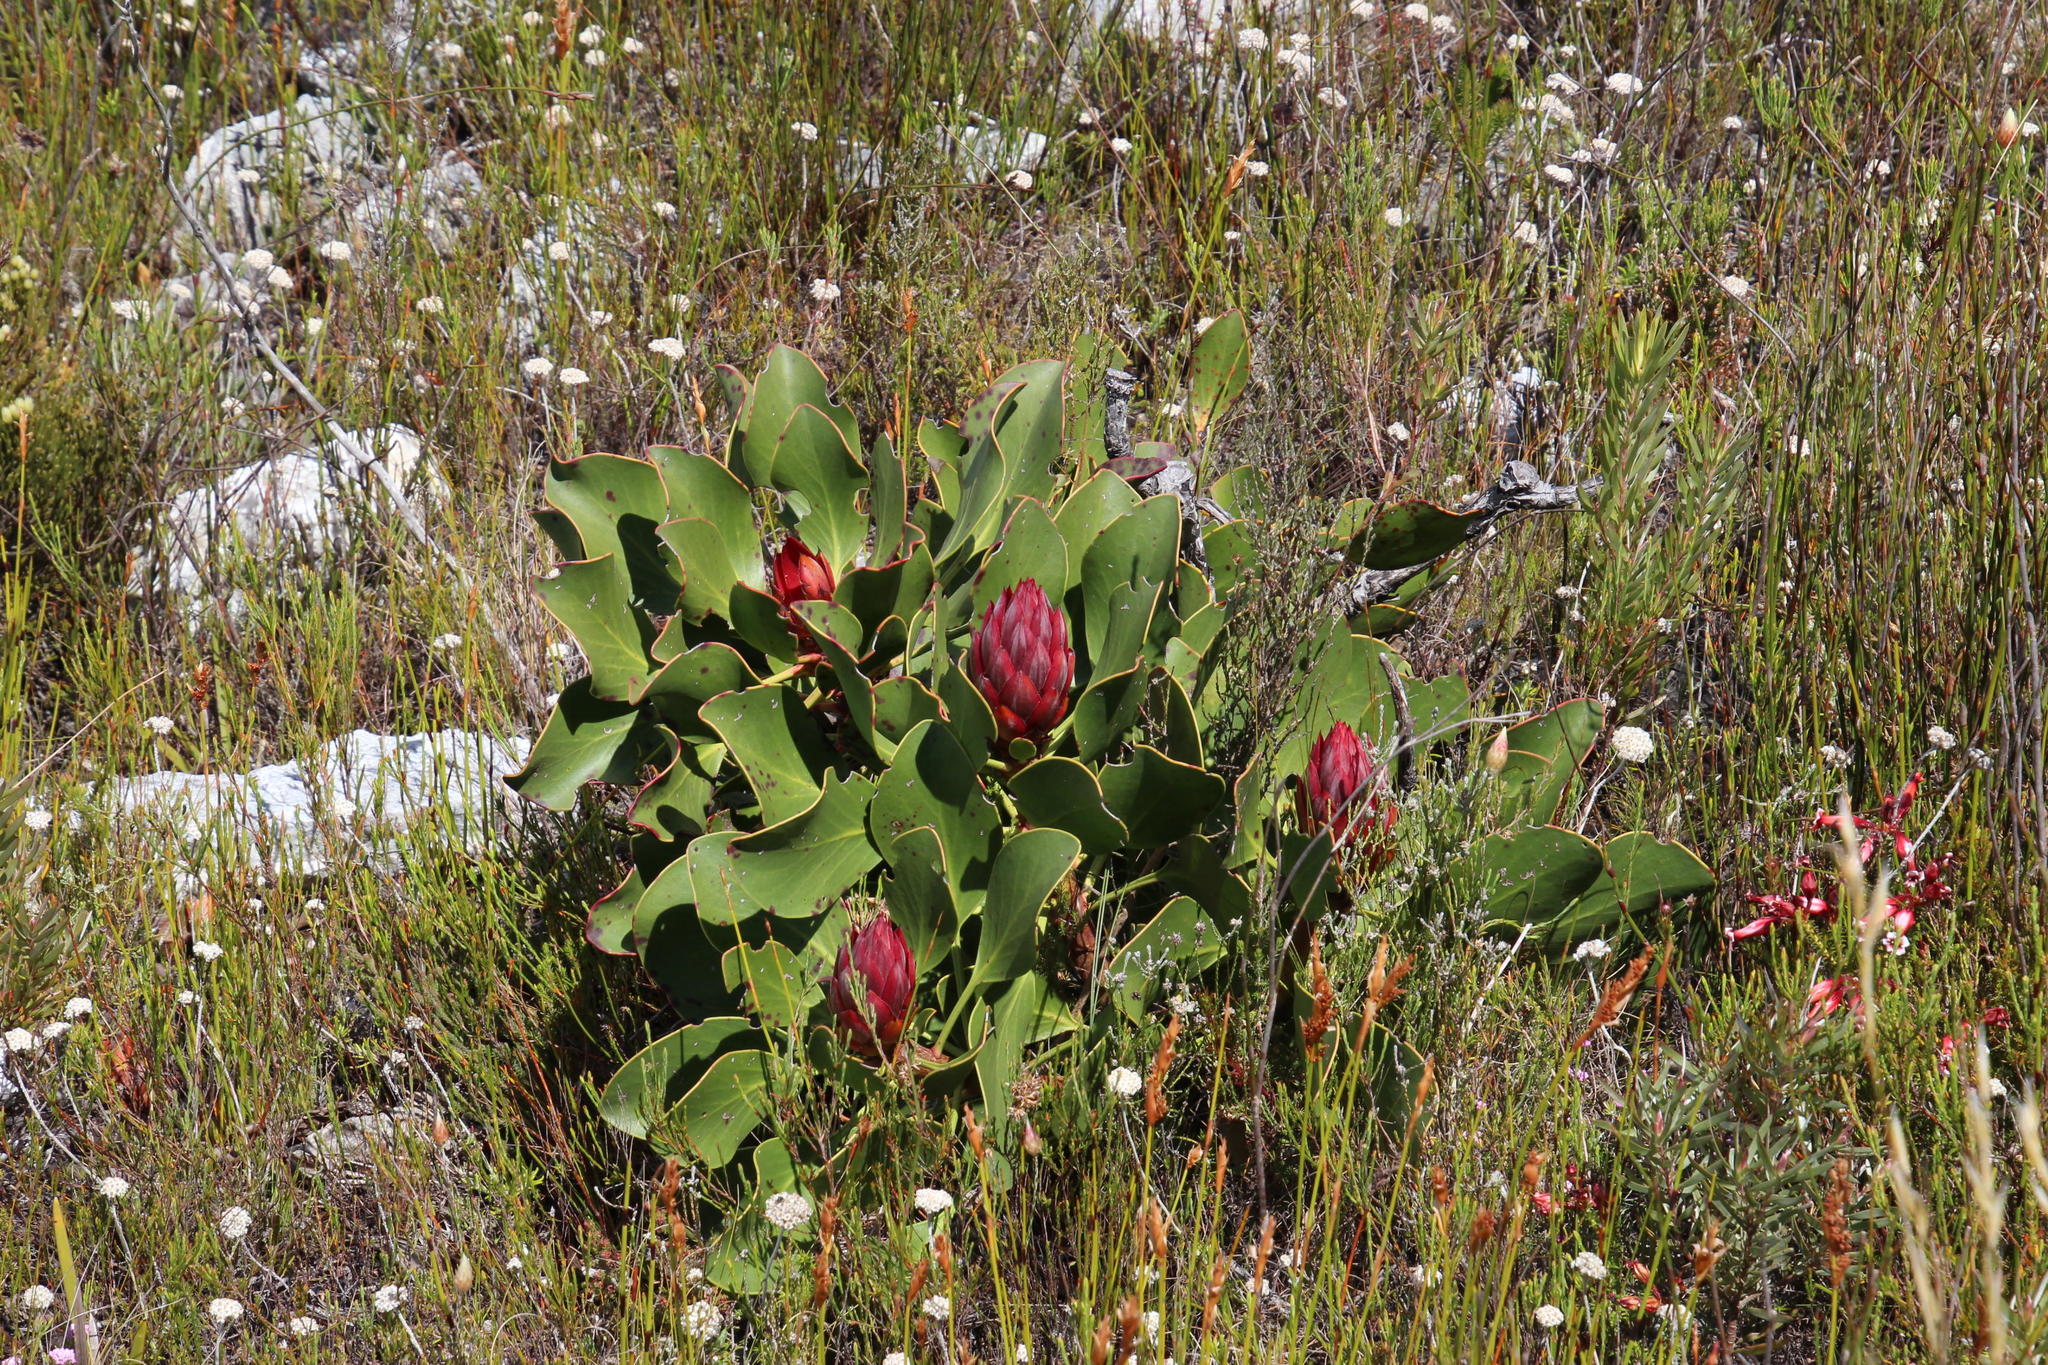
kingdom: Plantae
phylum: Tracheophyta
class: Magnoliopsida
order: Proteales
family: Proteaceae
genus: Protea
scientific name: Protea cynaroides
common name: King protea
